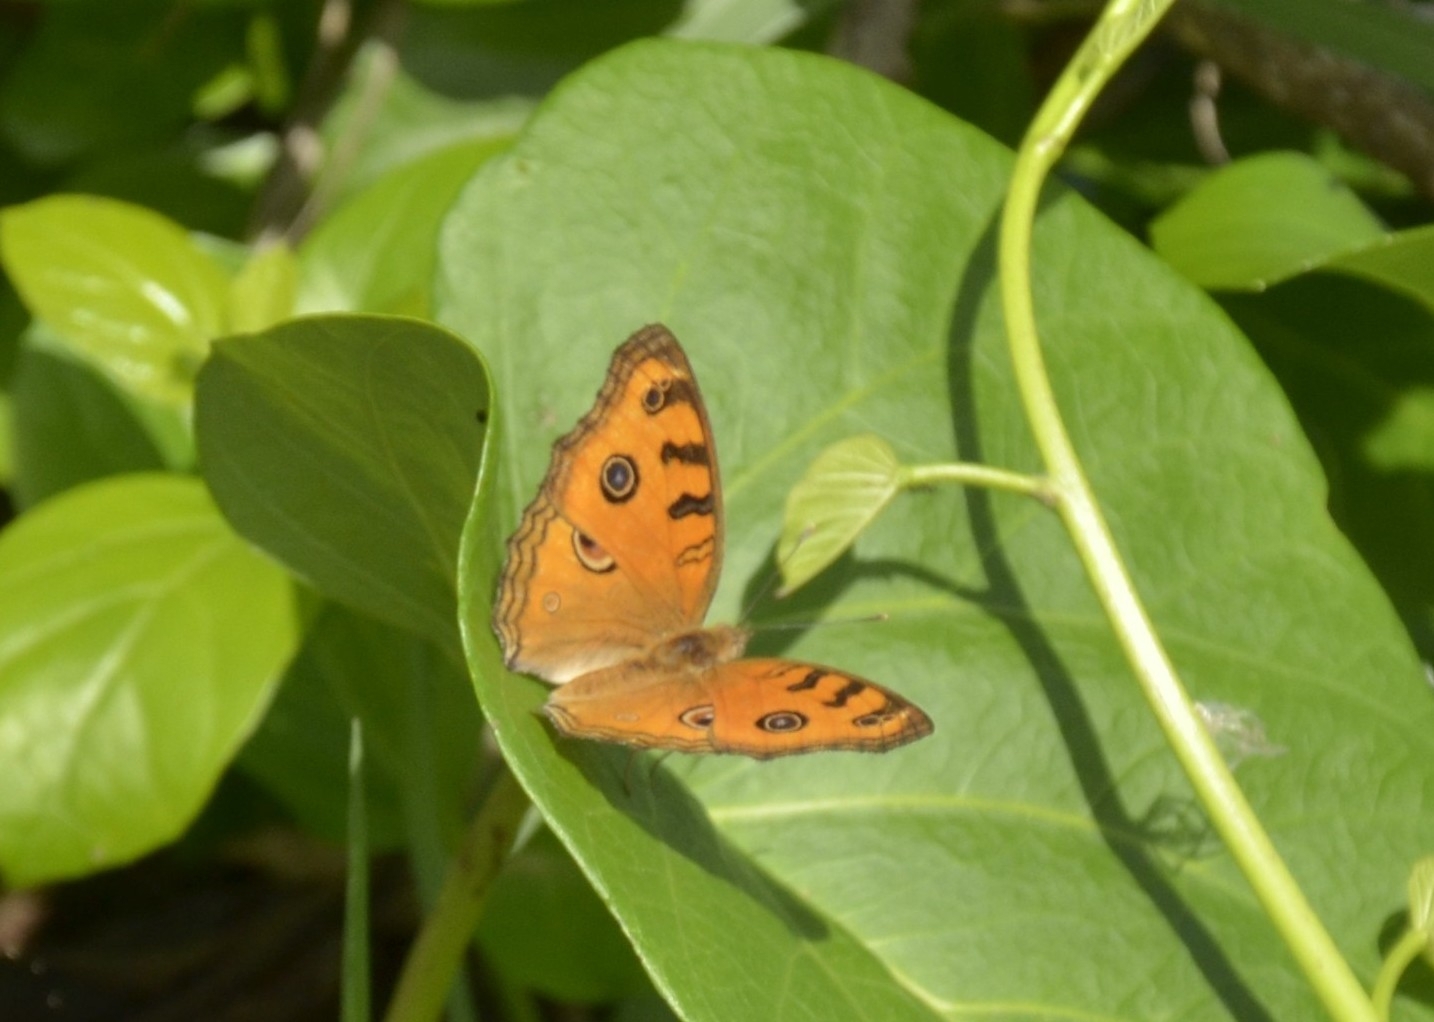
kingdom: Animalia
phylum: Arthropoda
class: Insecta
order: Lepidoptera
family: Nymphalidae
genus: Junonia
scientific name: Junonia almana
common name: Peacock pansy
